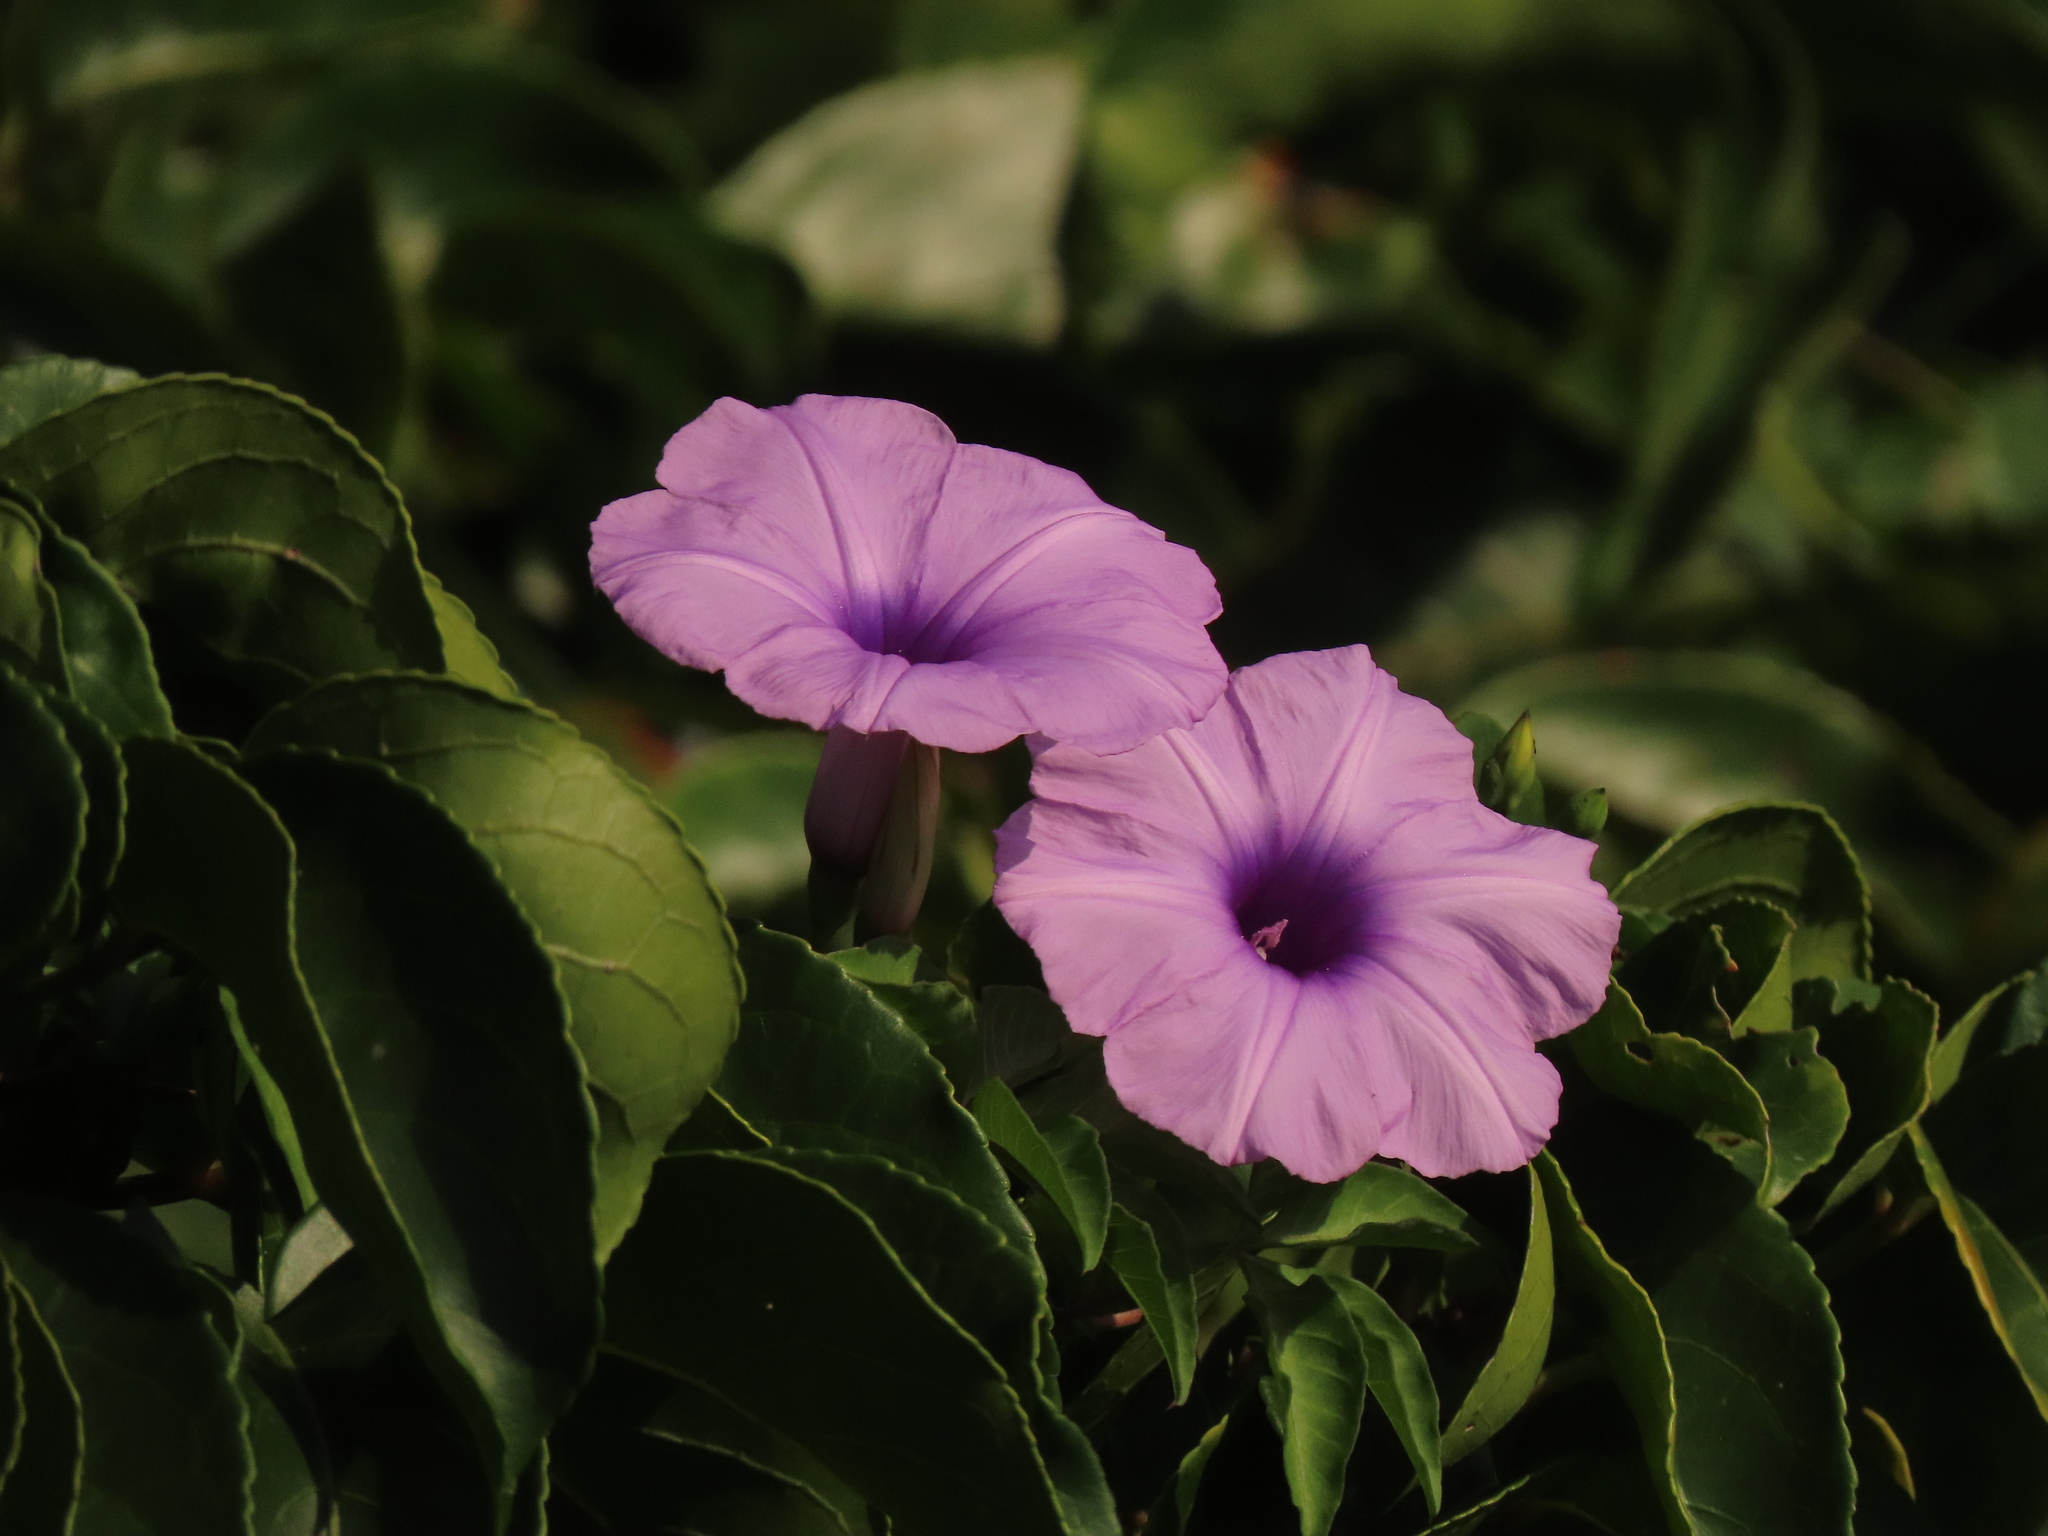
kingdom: Plantae
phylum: Tracheophyta
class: Magnoliopsida
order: Solanales
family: Convolvulaceae
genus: Ipomoea
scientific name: Ipomoea cairica
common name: Mile a minute vine
